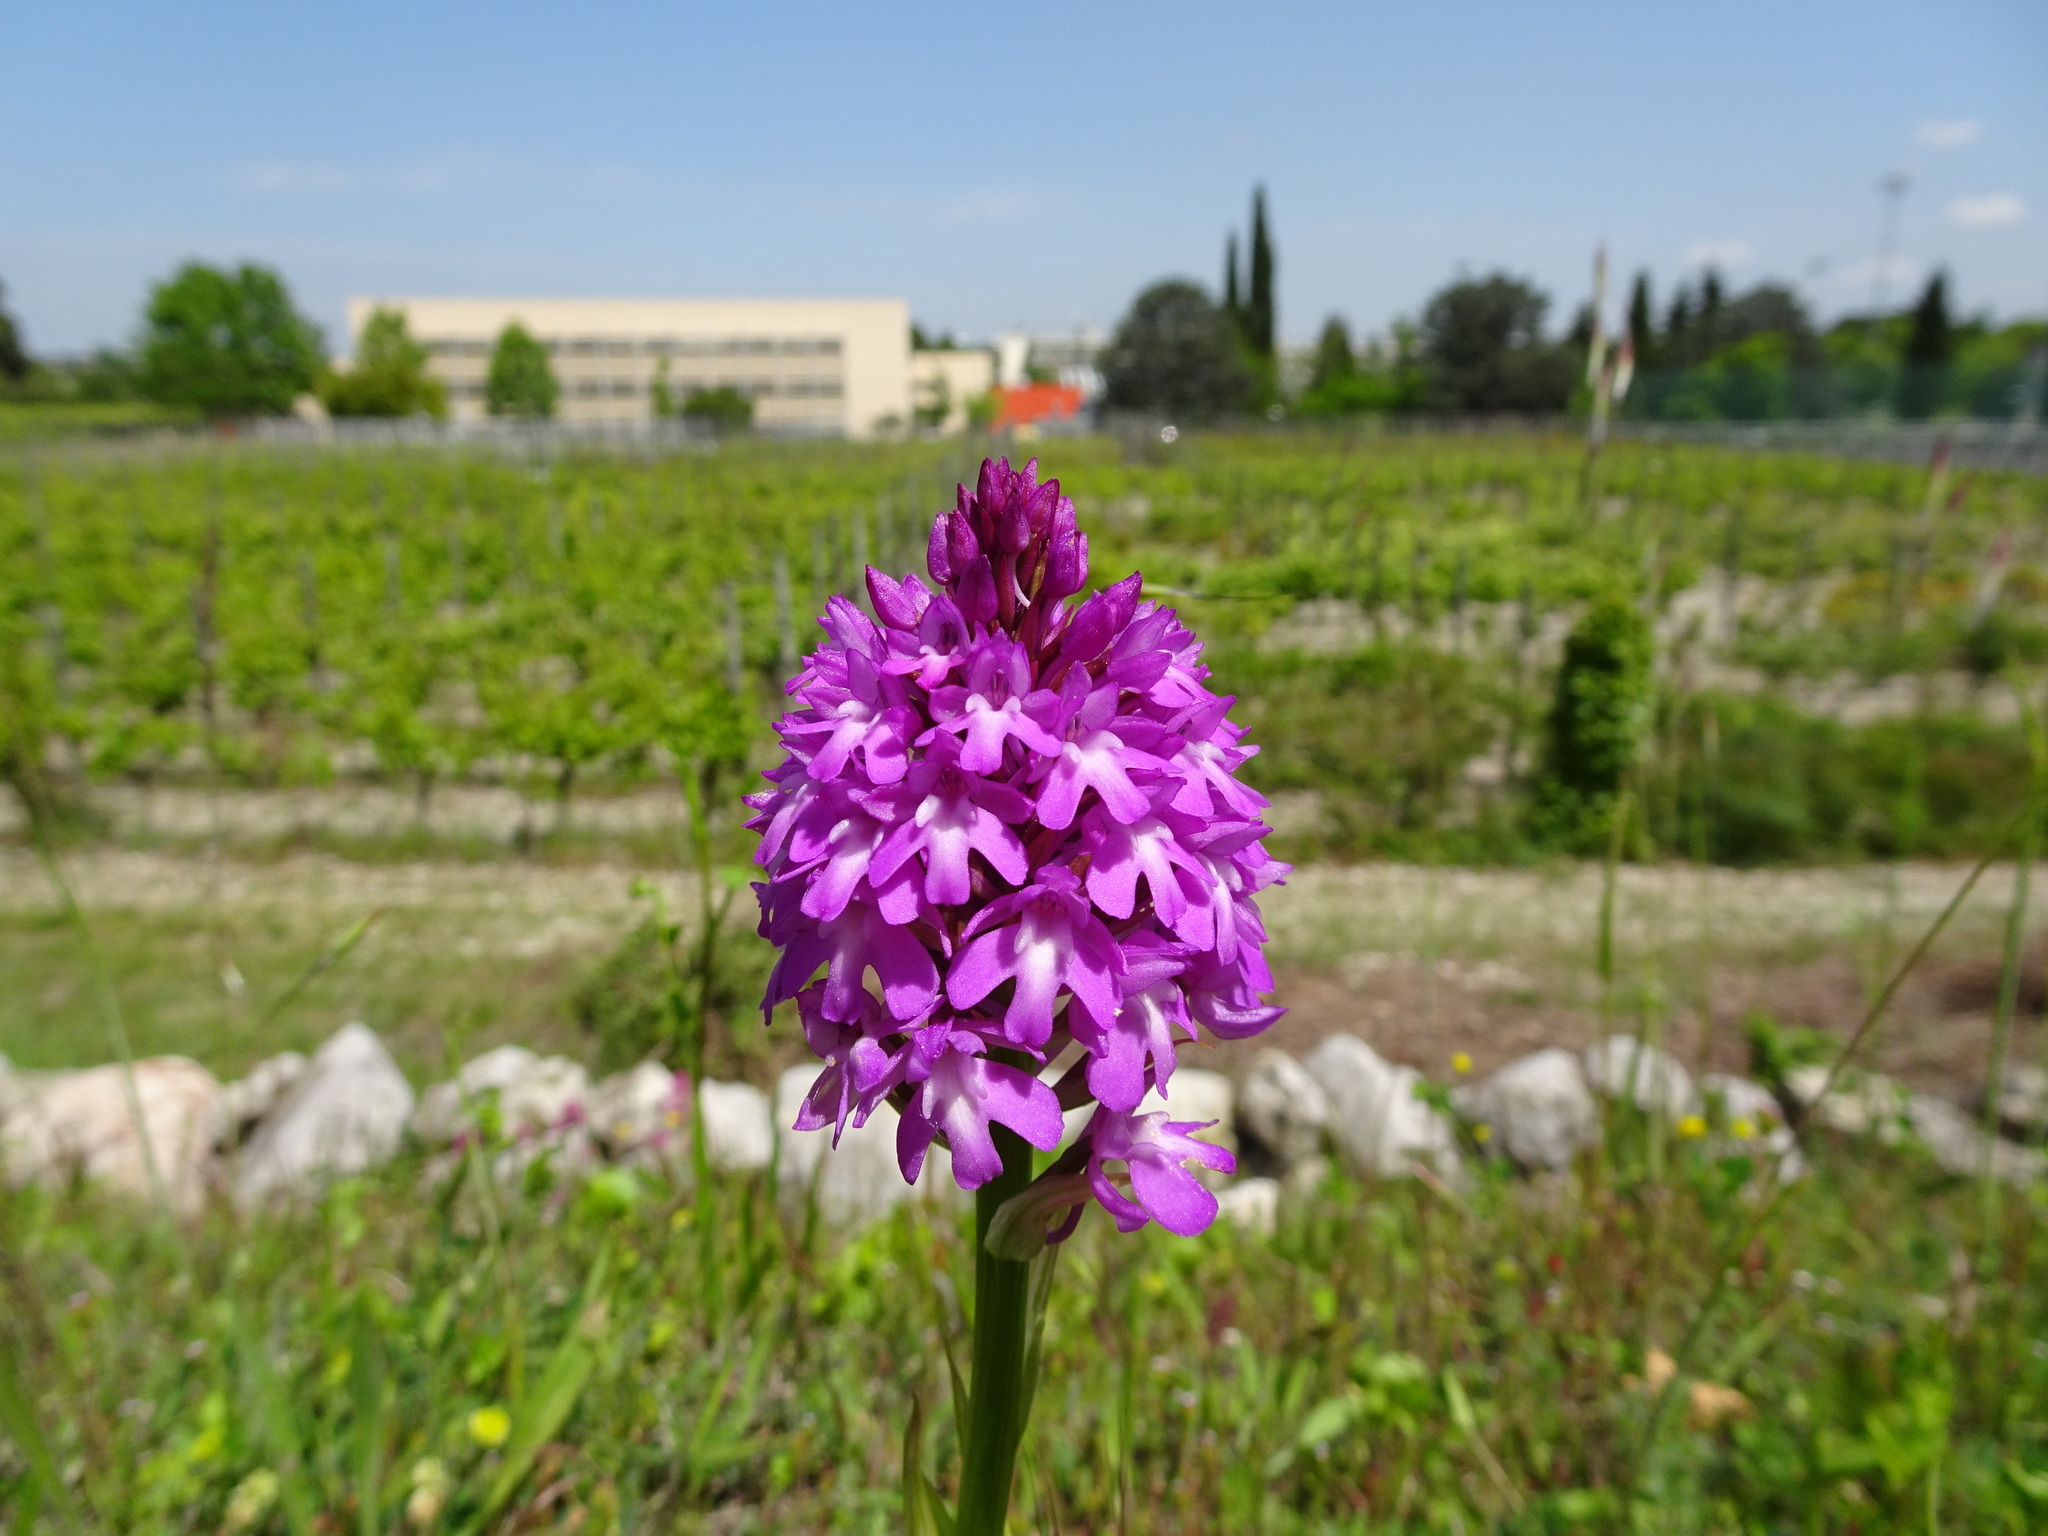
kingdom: Plantae
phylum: Tracheophyta
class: Liliopsida
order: Asparagales
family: Orchidaceae
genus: Anacamptis
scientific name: Anacamptis pyramidalis
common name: Pyramidal orchid
